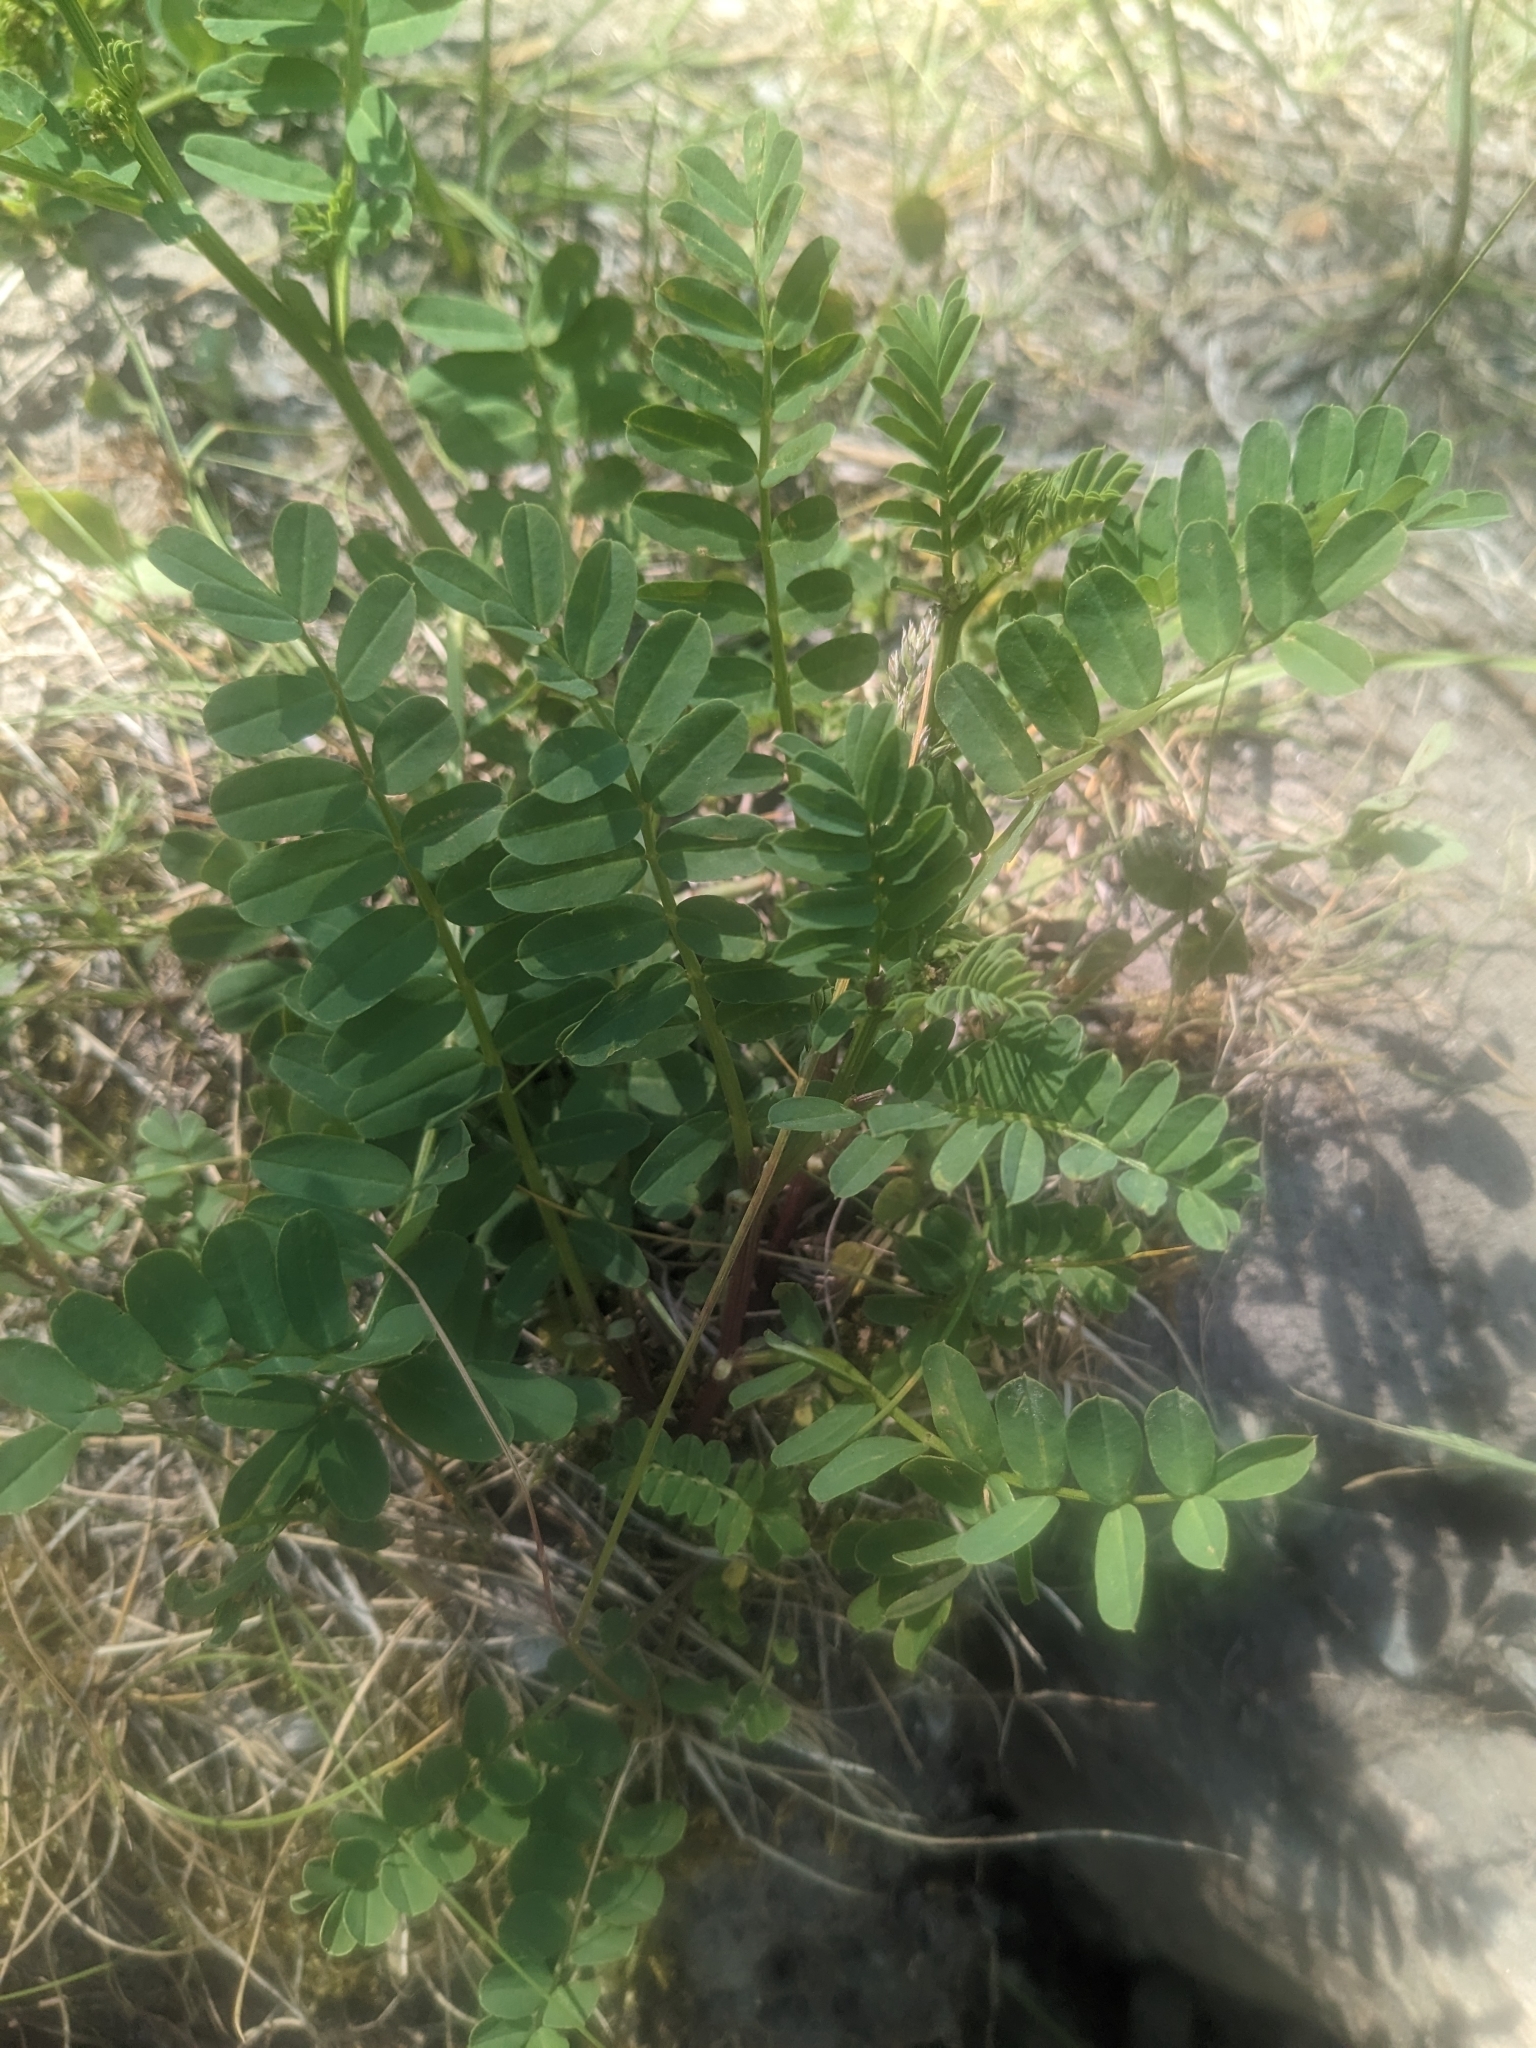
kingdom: Plantae
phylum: Tracheophyta
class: Magnoliopsida
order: Fabales
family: Fabaceae
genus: Coronilla
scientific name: Coronilla varia
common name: Crownvetch
